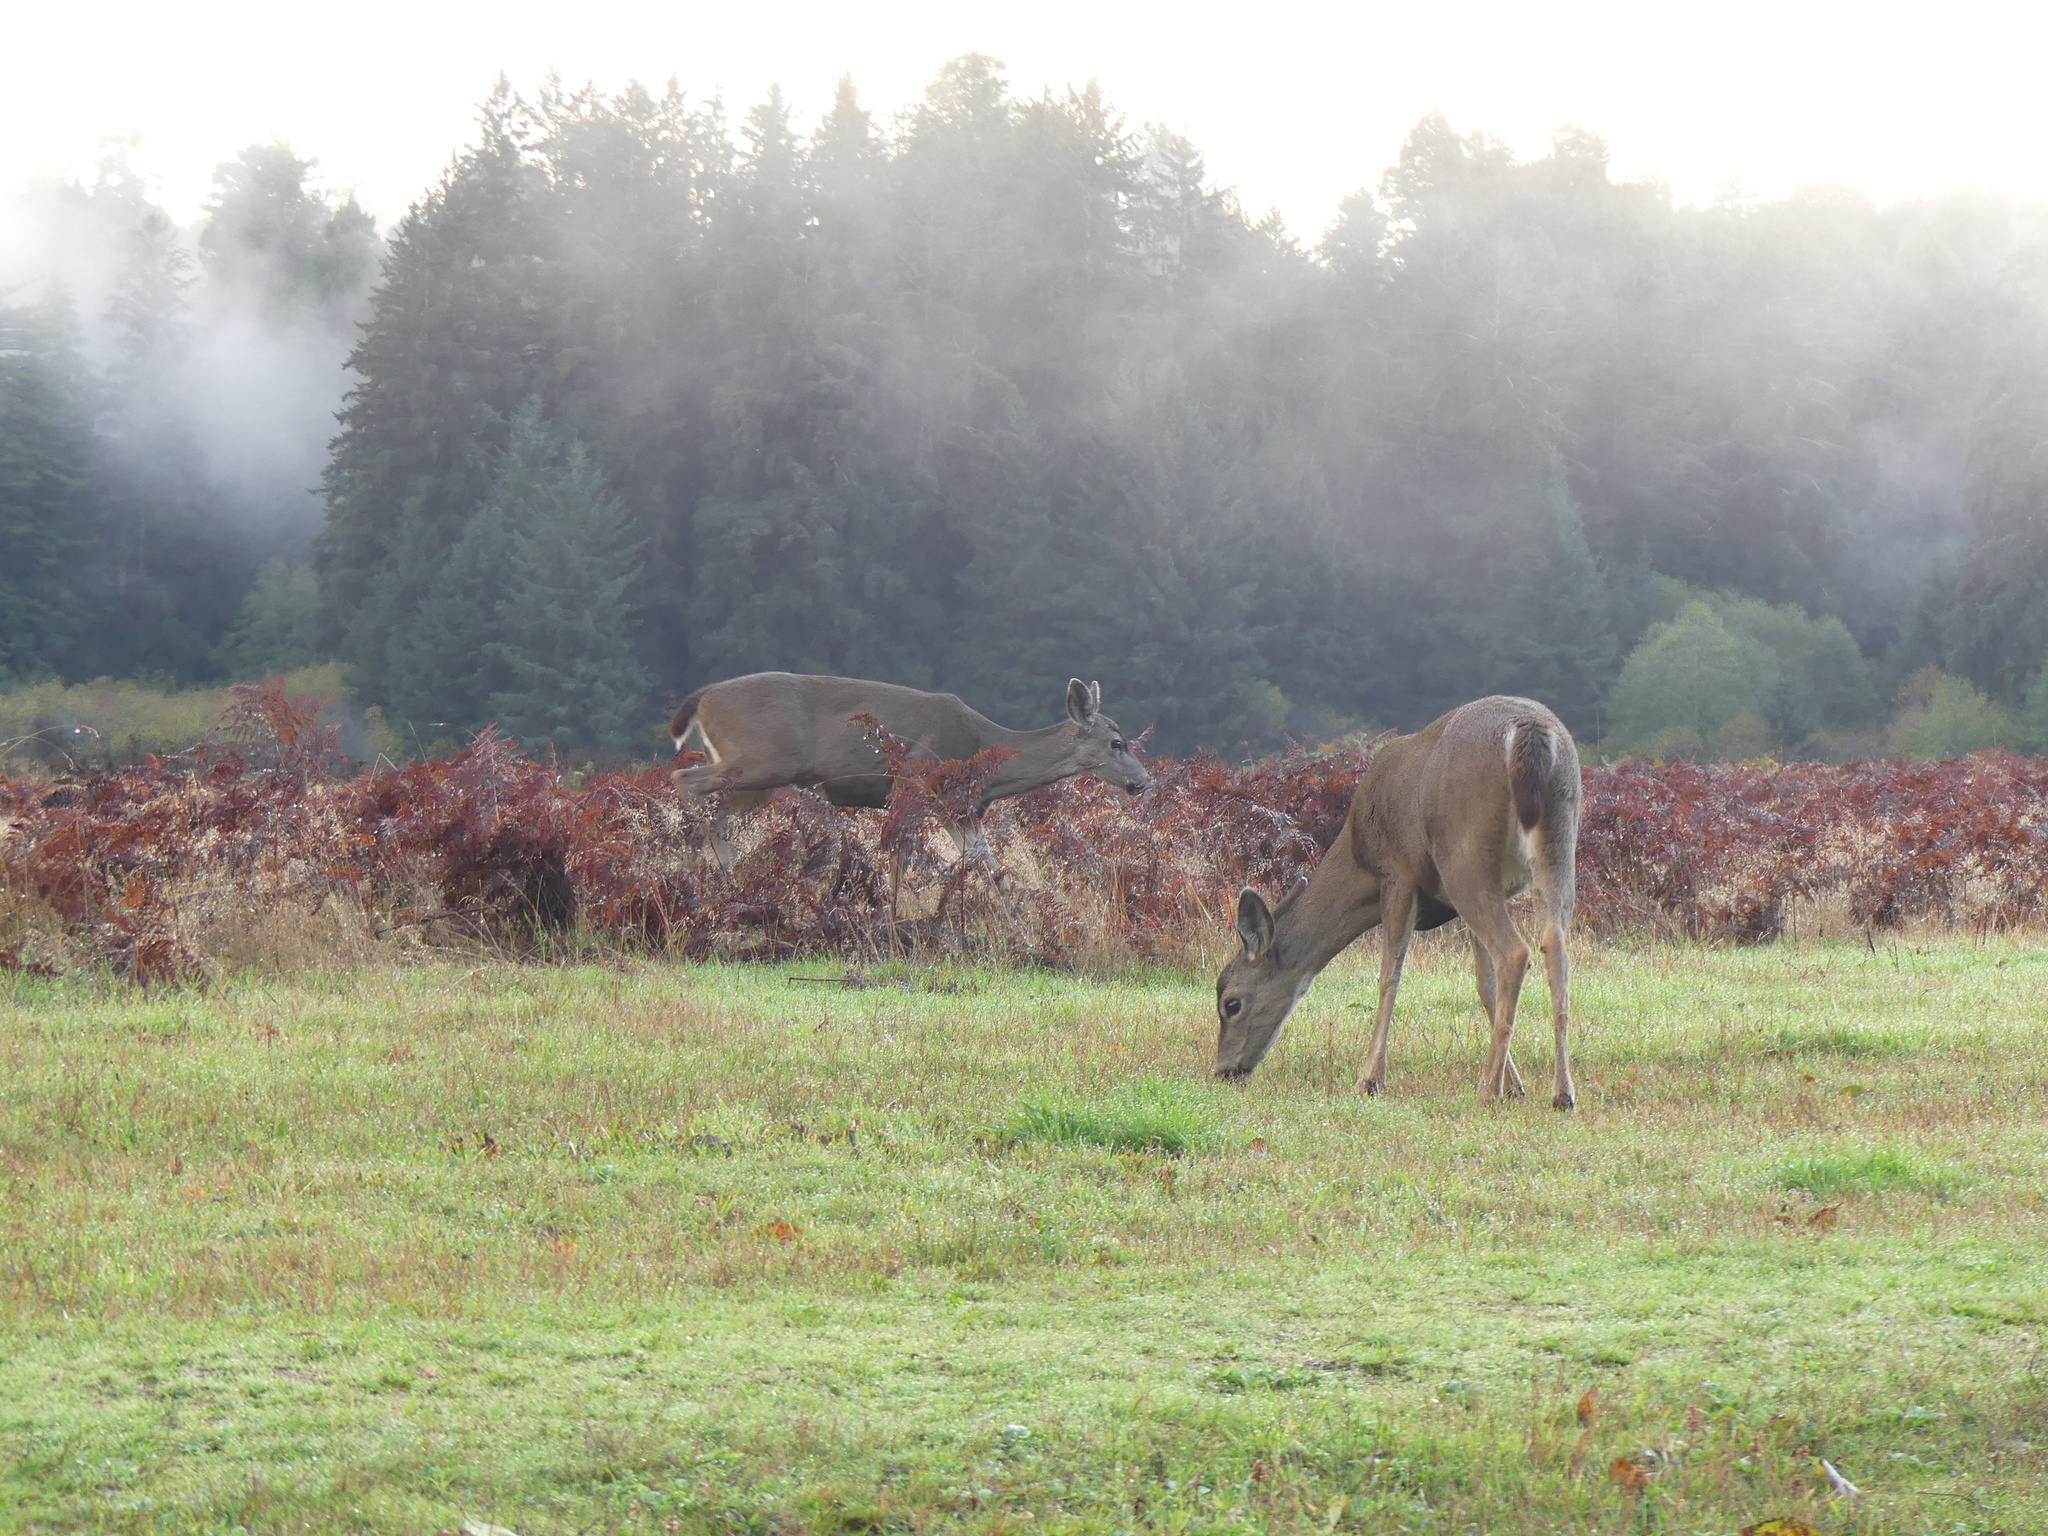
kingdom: Animalia
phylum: Chordata
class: Mammalia
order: Artiodactyla
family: Cervidae
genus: Odocoileus
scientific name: Odocoileus hemionus
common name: Mule deer
